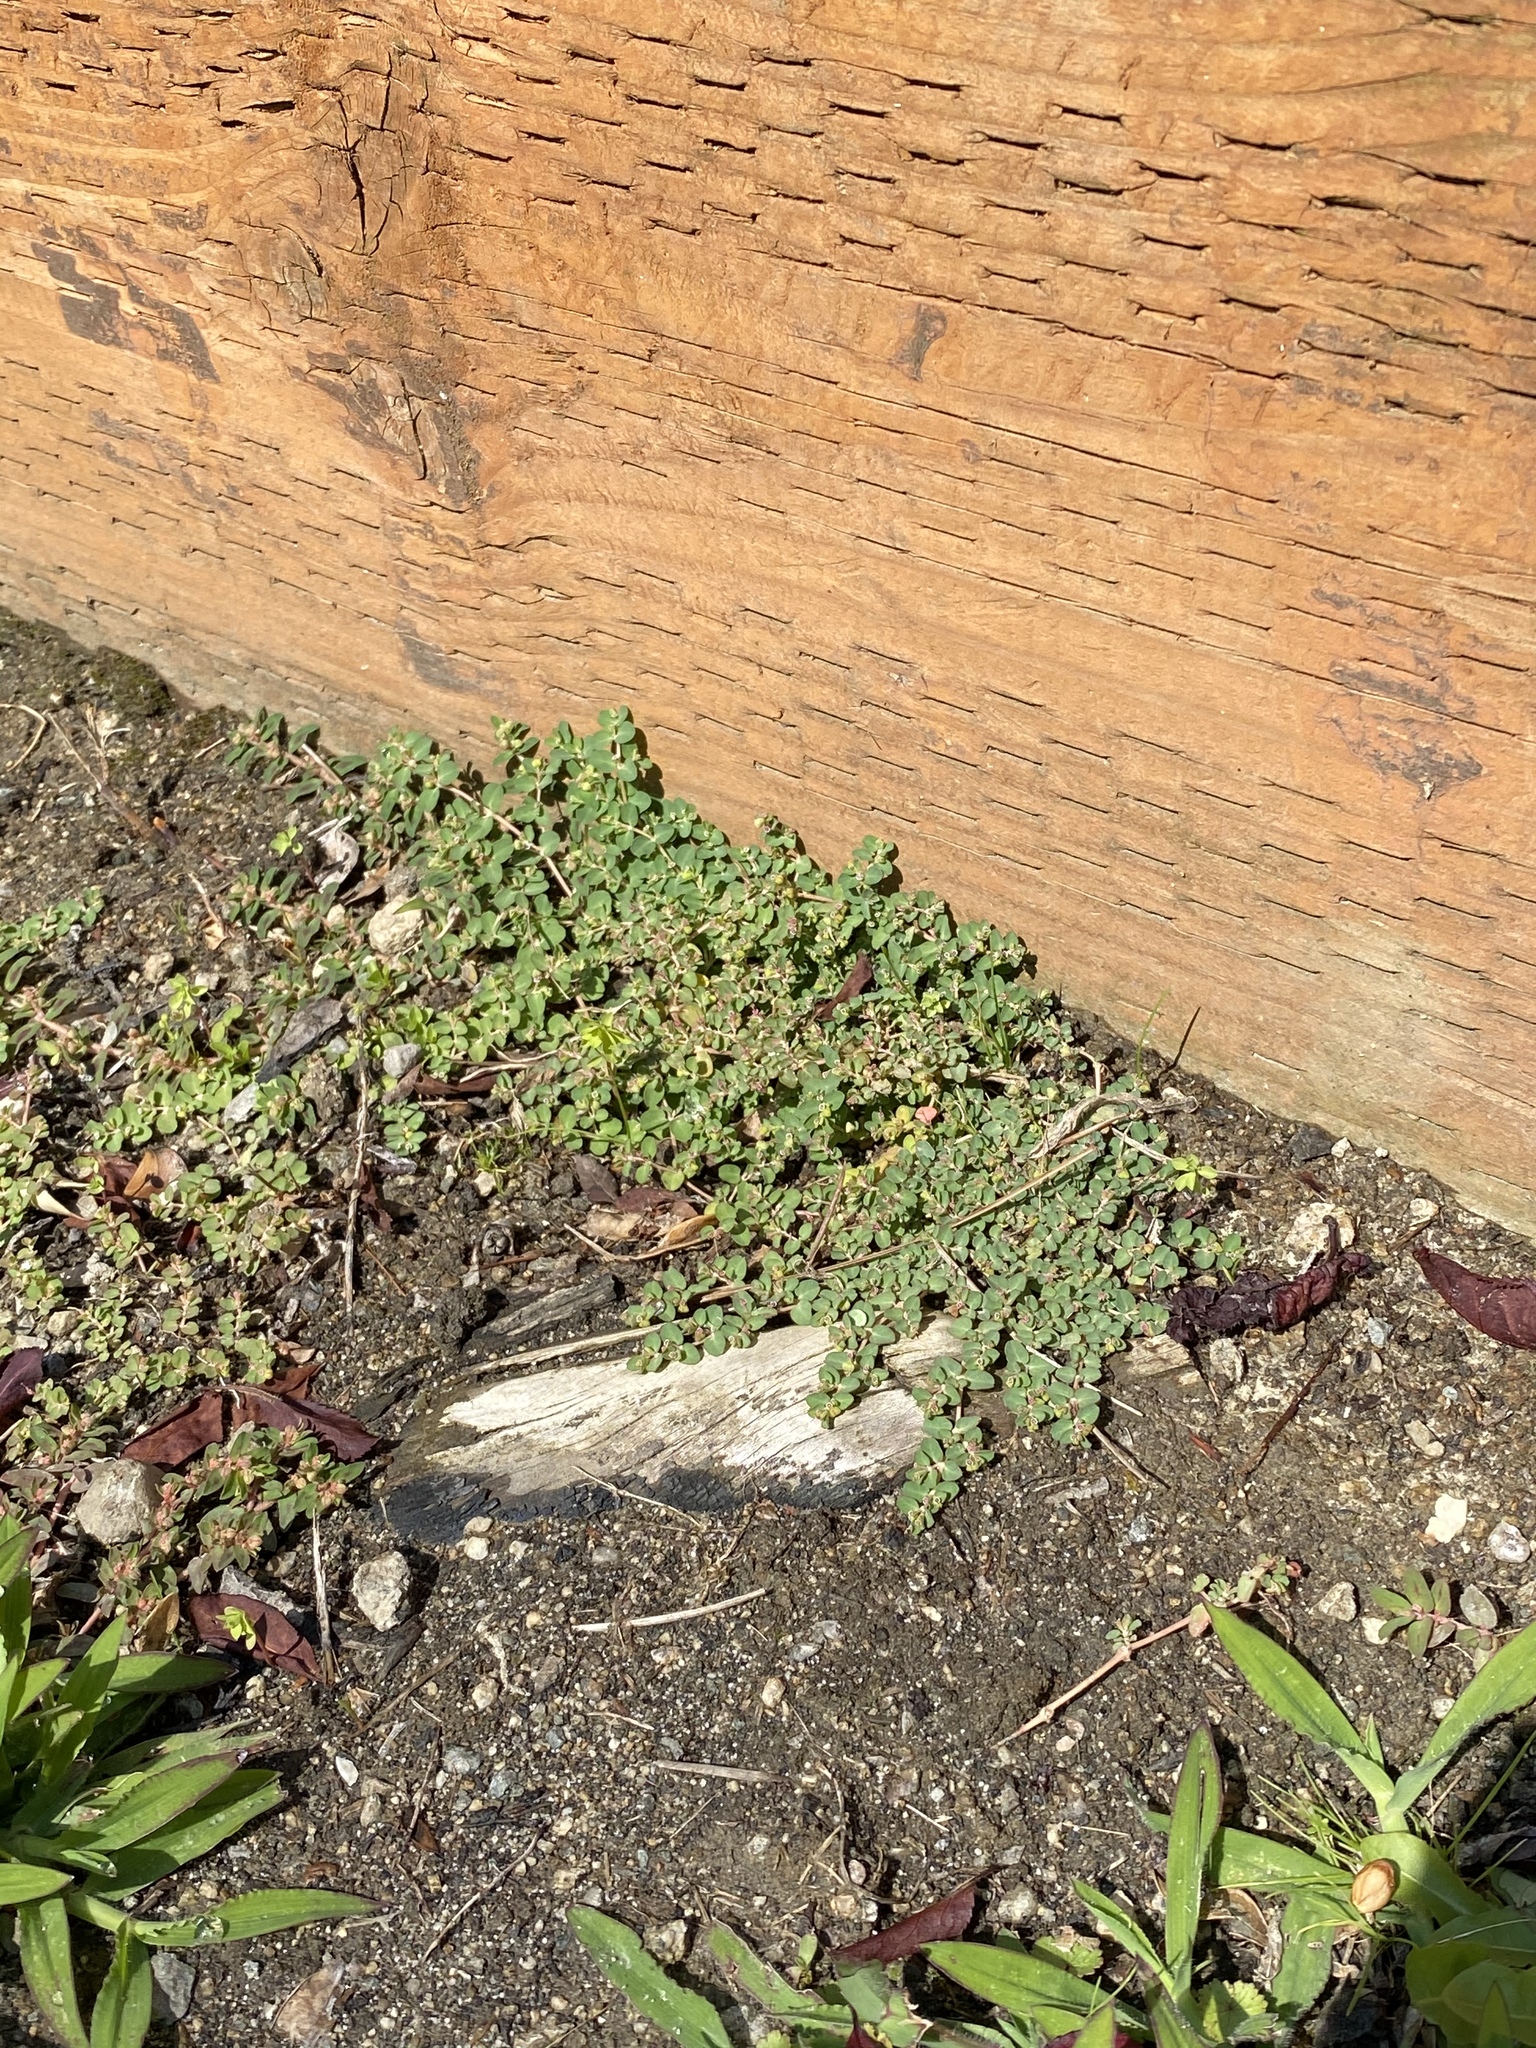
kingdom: Plantae
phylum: Tracheophyta
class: Magnoliopsida
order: Malpighiales
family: Euphorbiaceae
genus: Euphorbia
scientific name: Euphorbia serpens
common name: Matted sandmat
